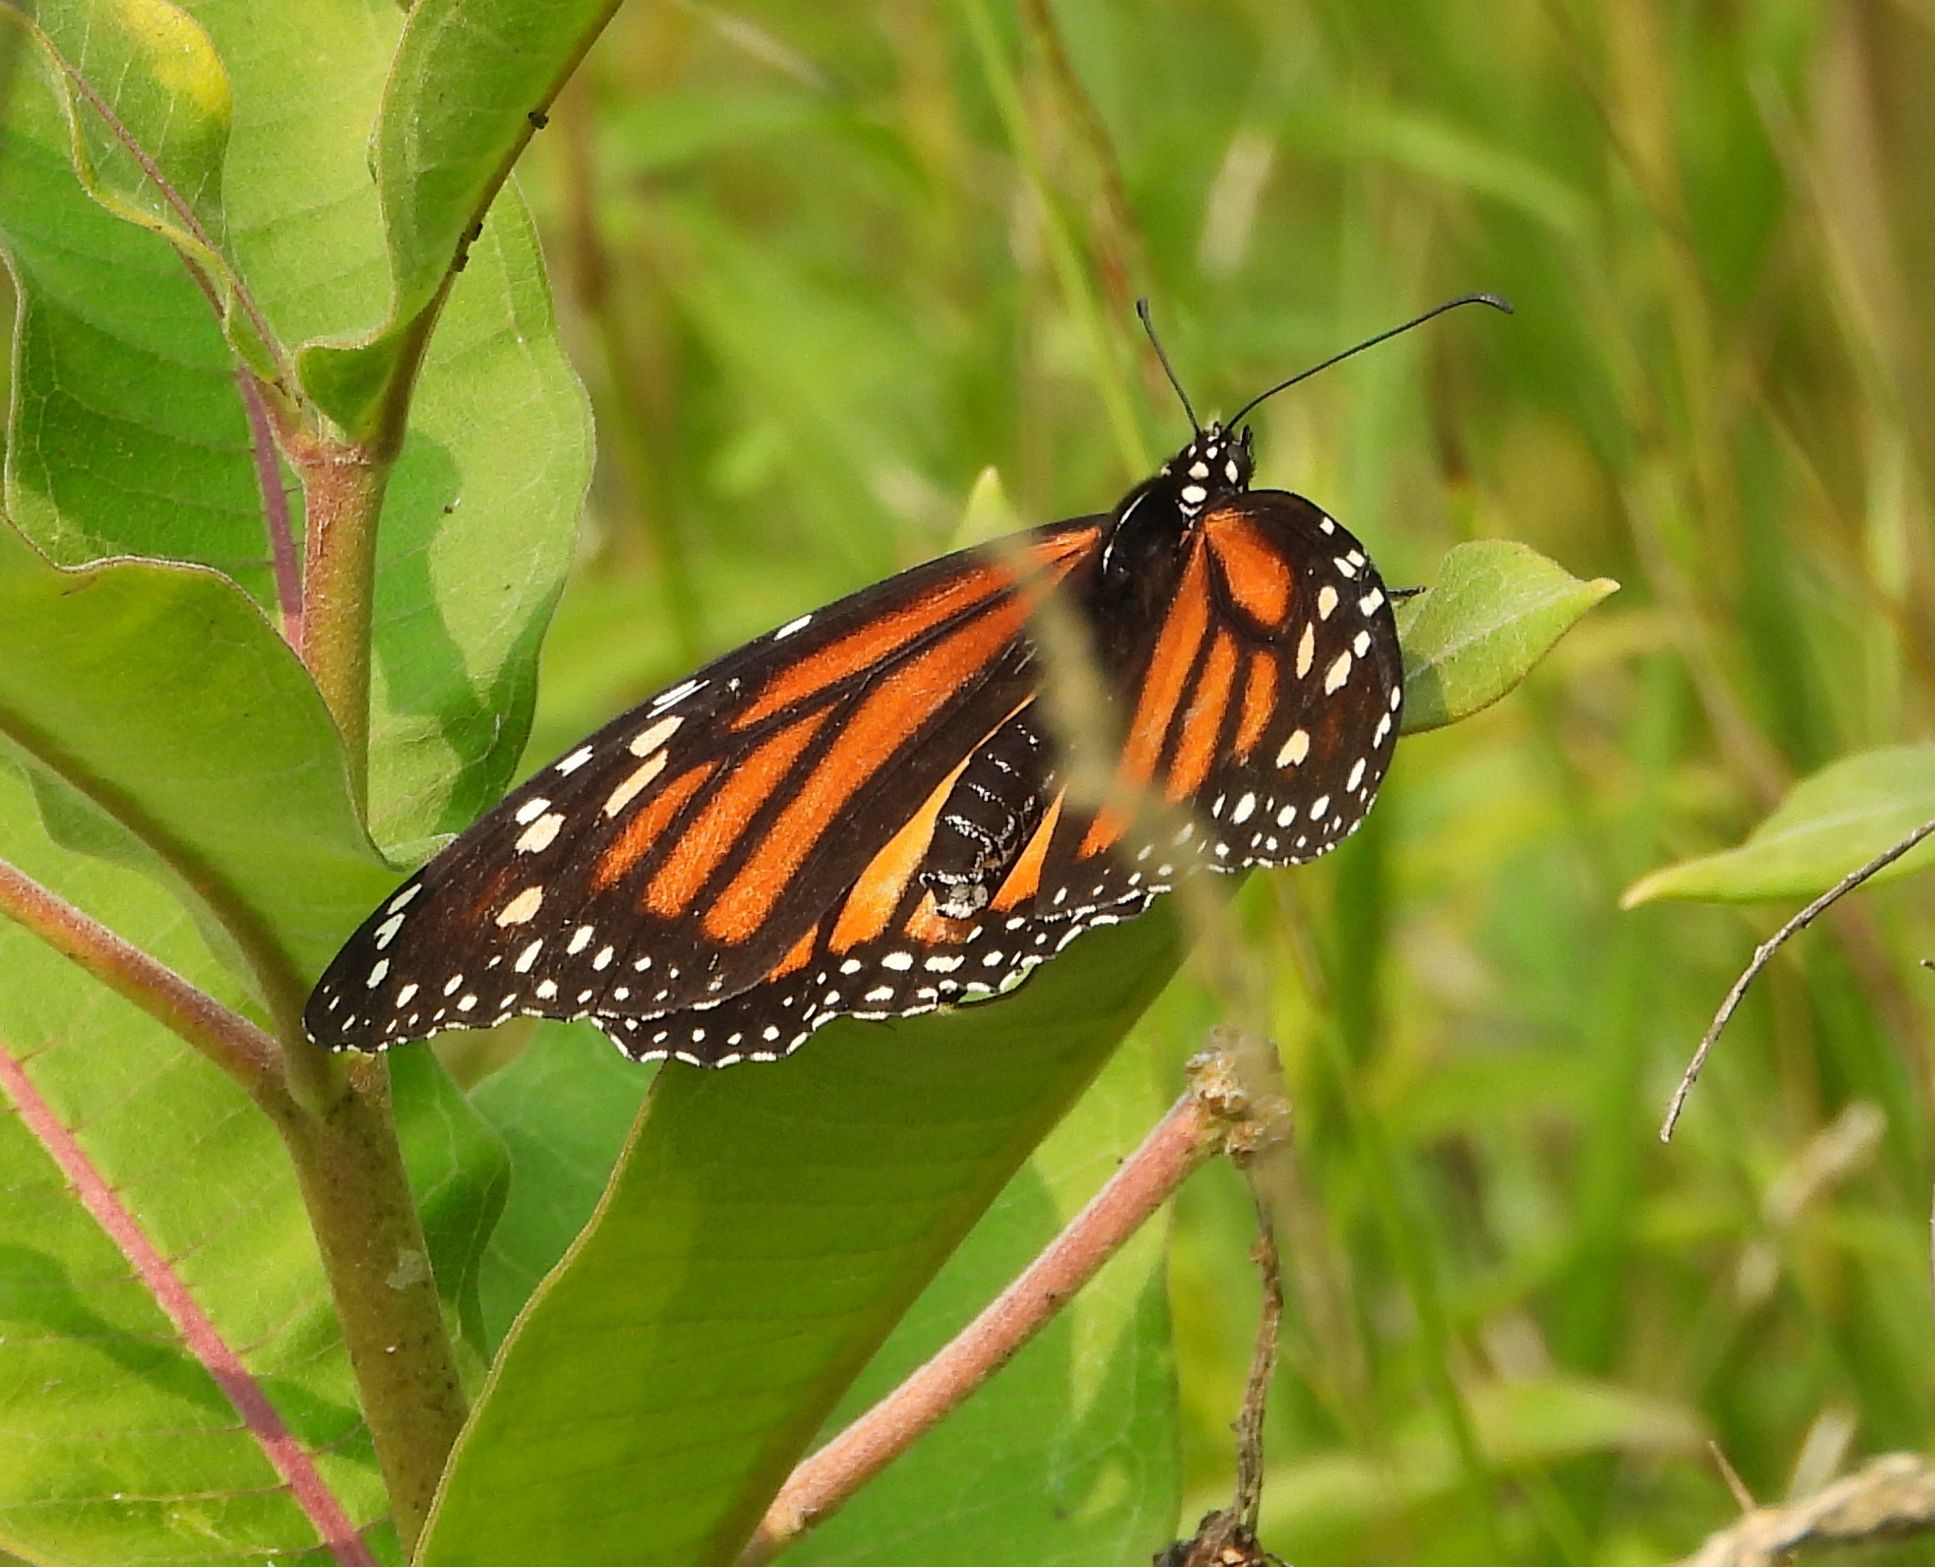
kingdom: Animalia
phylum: Arthropoda
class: Insecta
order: Lepidoptera
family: Nymphalidae
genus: Danaus
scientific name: Danaus plexippus
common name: Monarch
